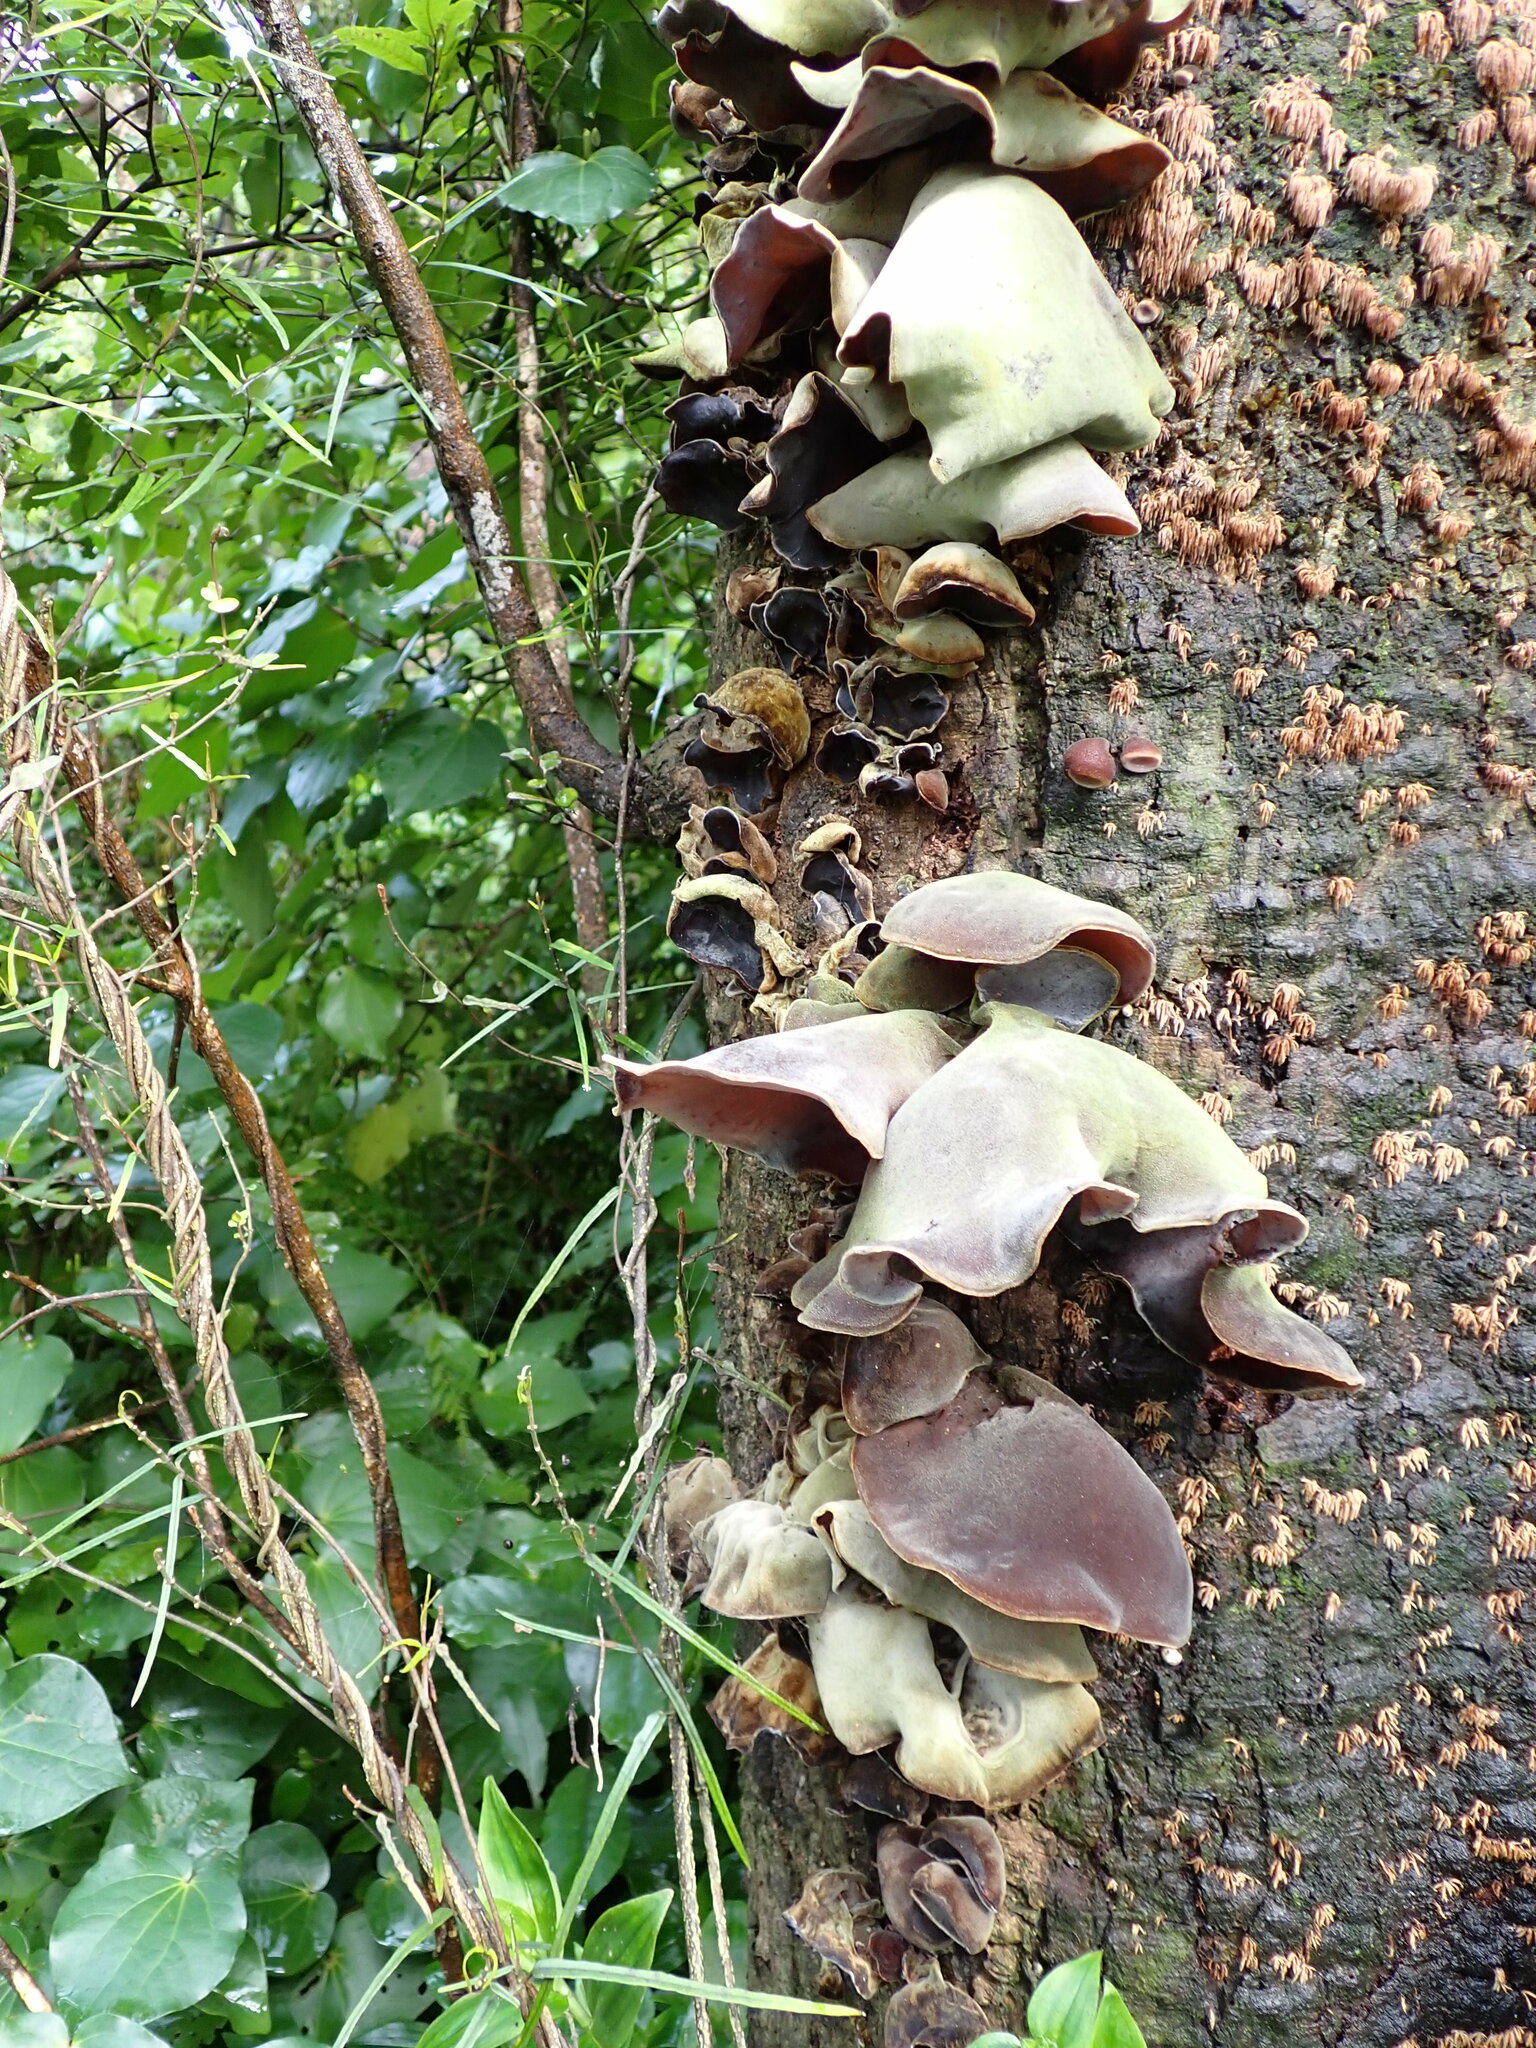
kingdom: Fungi
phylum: Basidiomycota
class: Agaricomycetes
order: Auriculariales
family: Auriculariaceae
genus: Auricularia
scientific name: Auricularia cornea
